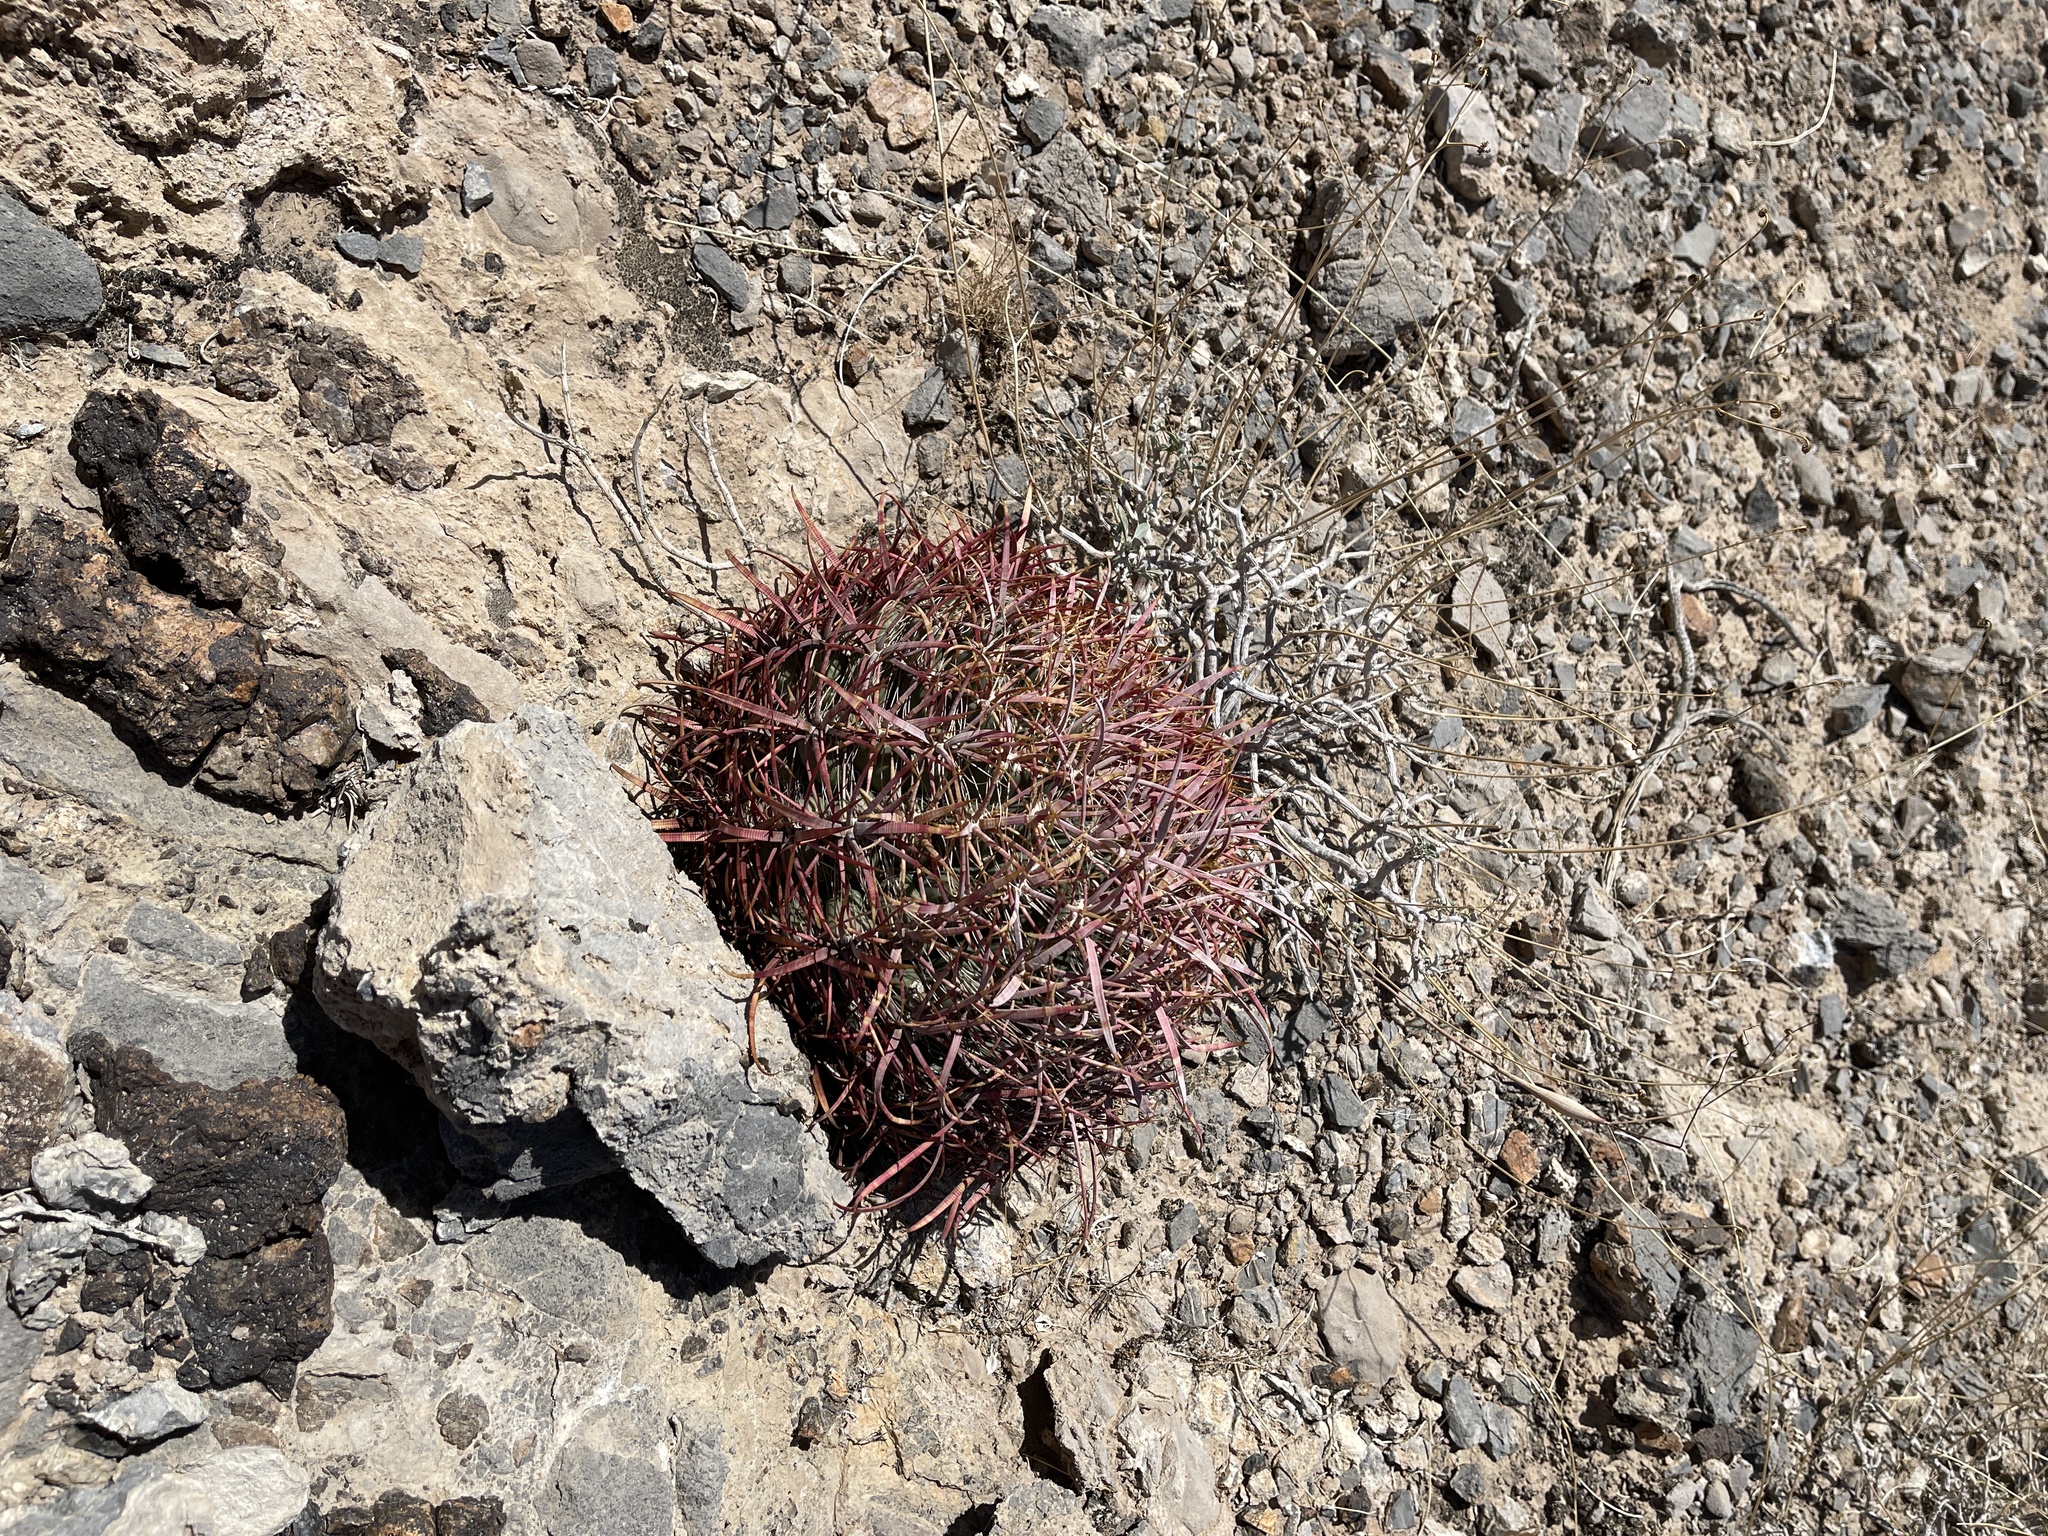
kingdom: Plantae
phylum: Tracheophyta
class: Magnoliopsida
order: Caryophyllales
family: Cactaceae
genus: Ferocactus
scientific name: Ferocactus cylindraceus
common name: California barrel cactus
